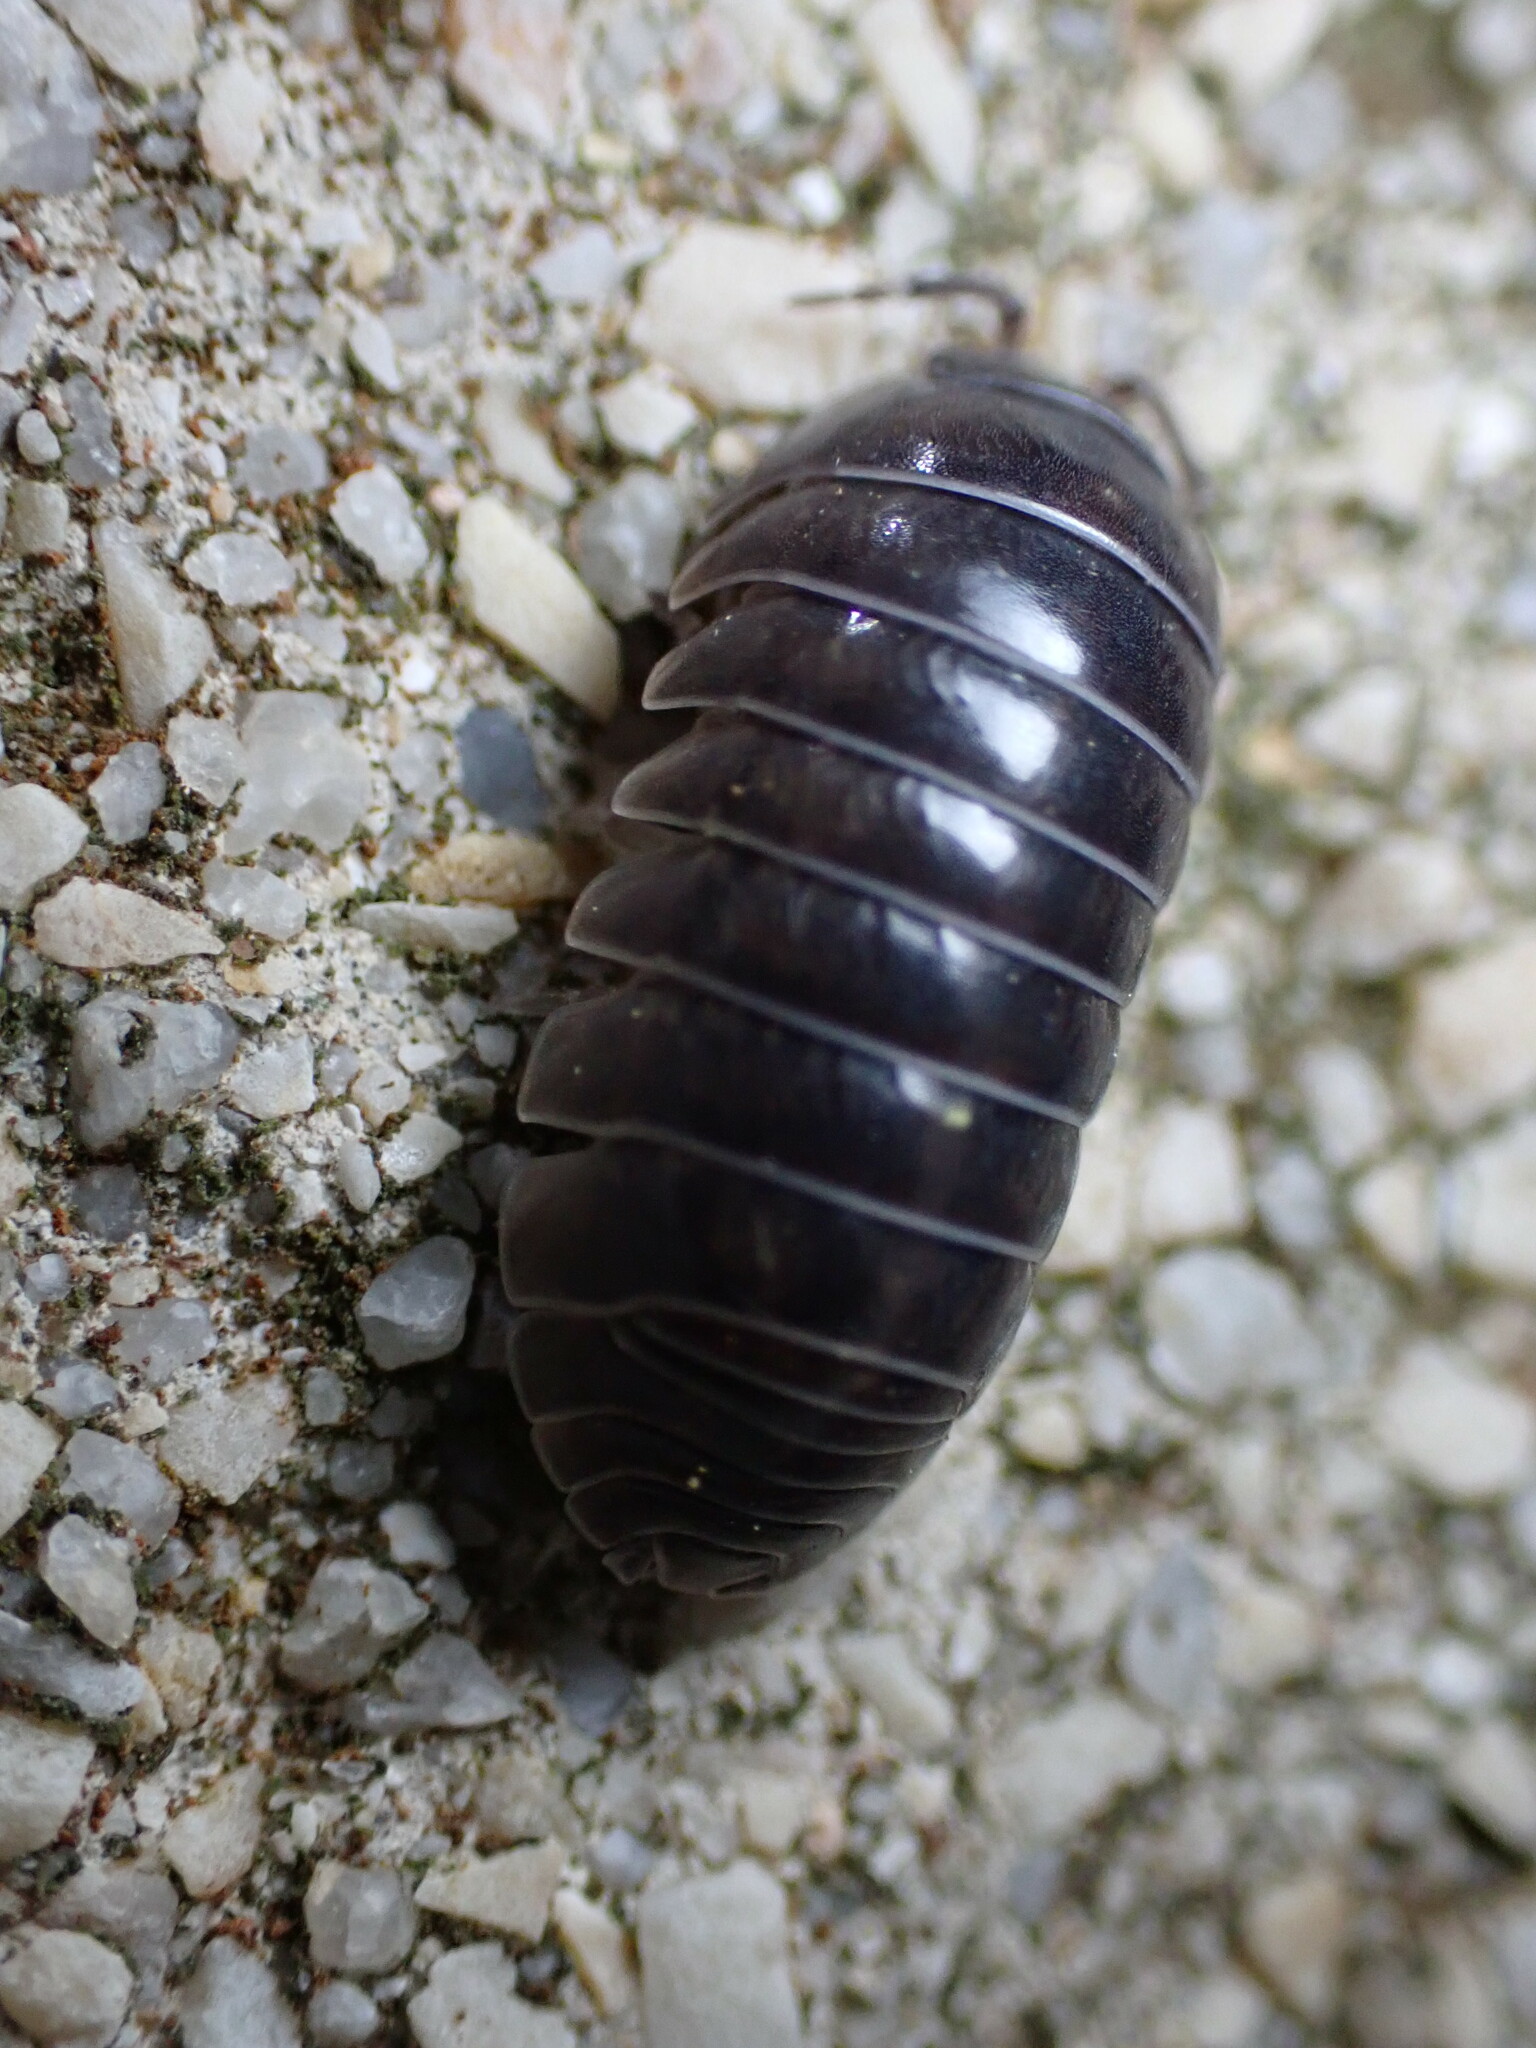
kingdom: Animalia
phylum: Arthropoda
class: Malacostraca
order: Isopoda
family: Armadillidiidae
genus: Armadillidium
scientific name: Armadillidium vulgare
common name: Common pill woodlouse
